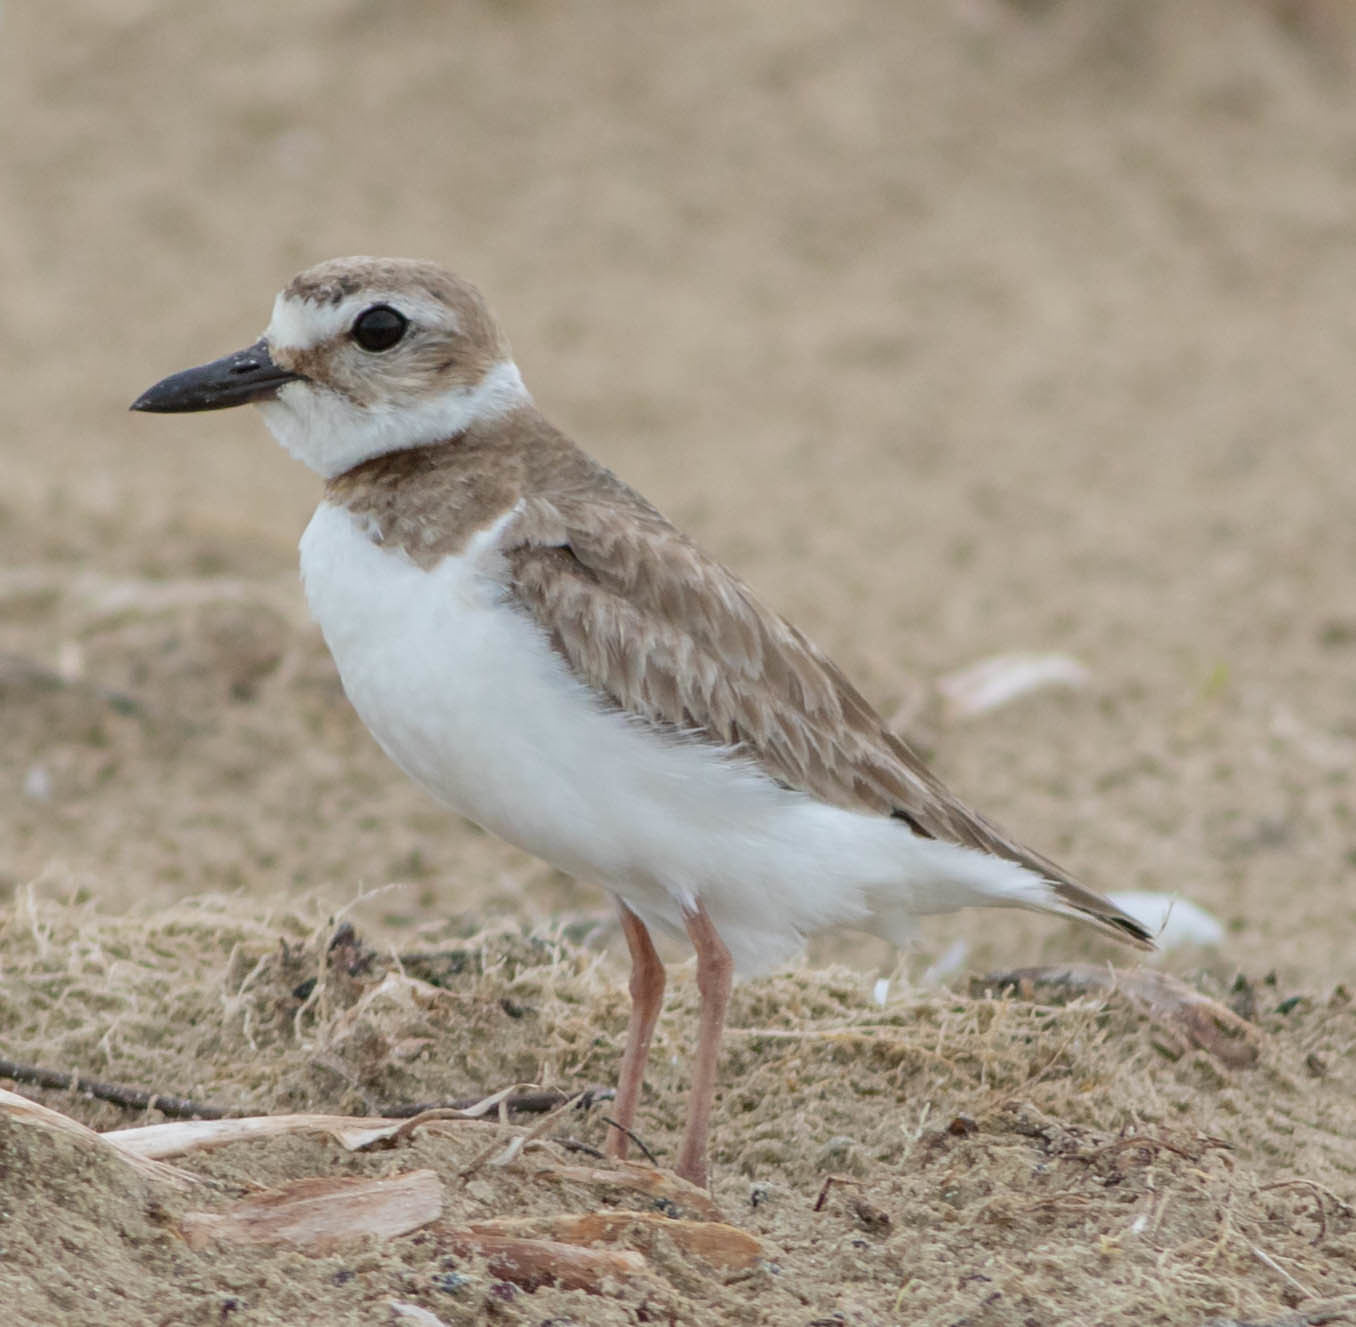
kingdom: Animalia
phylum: Chordata
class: Aves
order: Charadriiformes
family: Charadriidae
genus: Anarhynchus
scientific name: Anarhynchus
